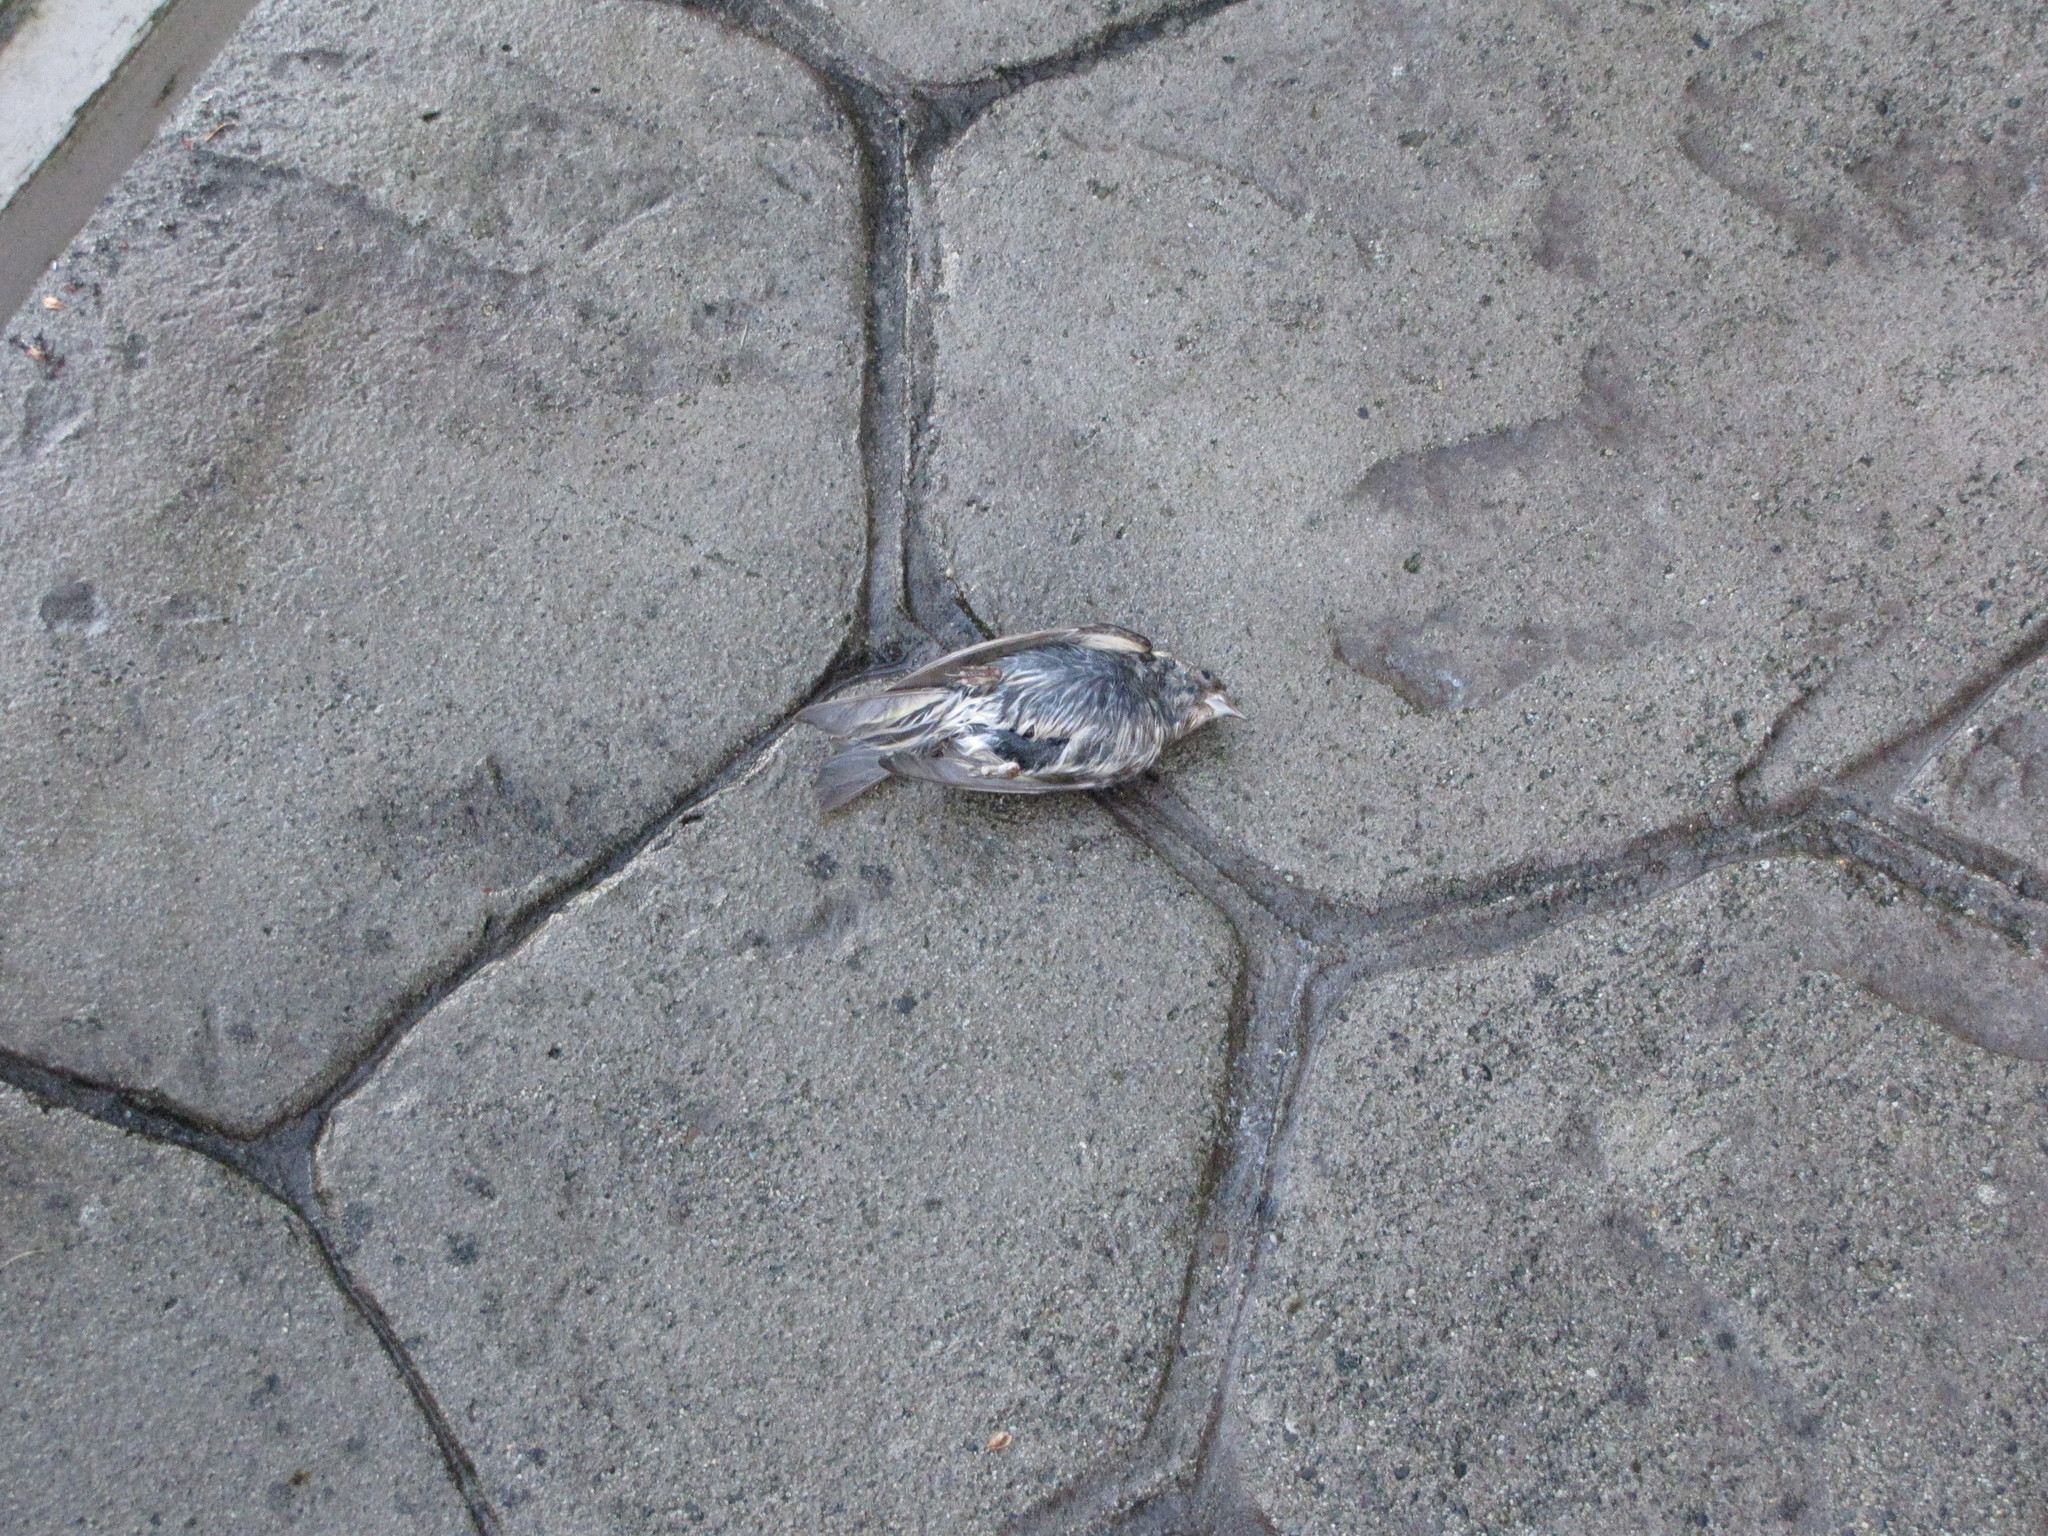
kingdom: Animalia
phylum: Chordata
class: Aves
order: Passeriformes
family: Fringillidae
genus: Spinus
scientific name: Spinus pinus
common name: Pine siskin
